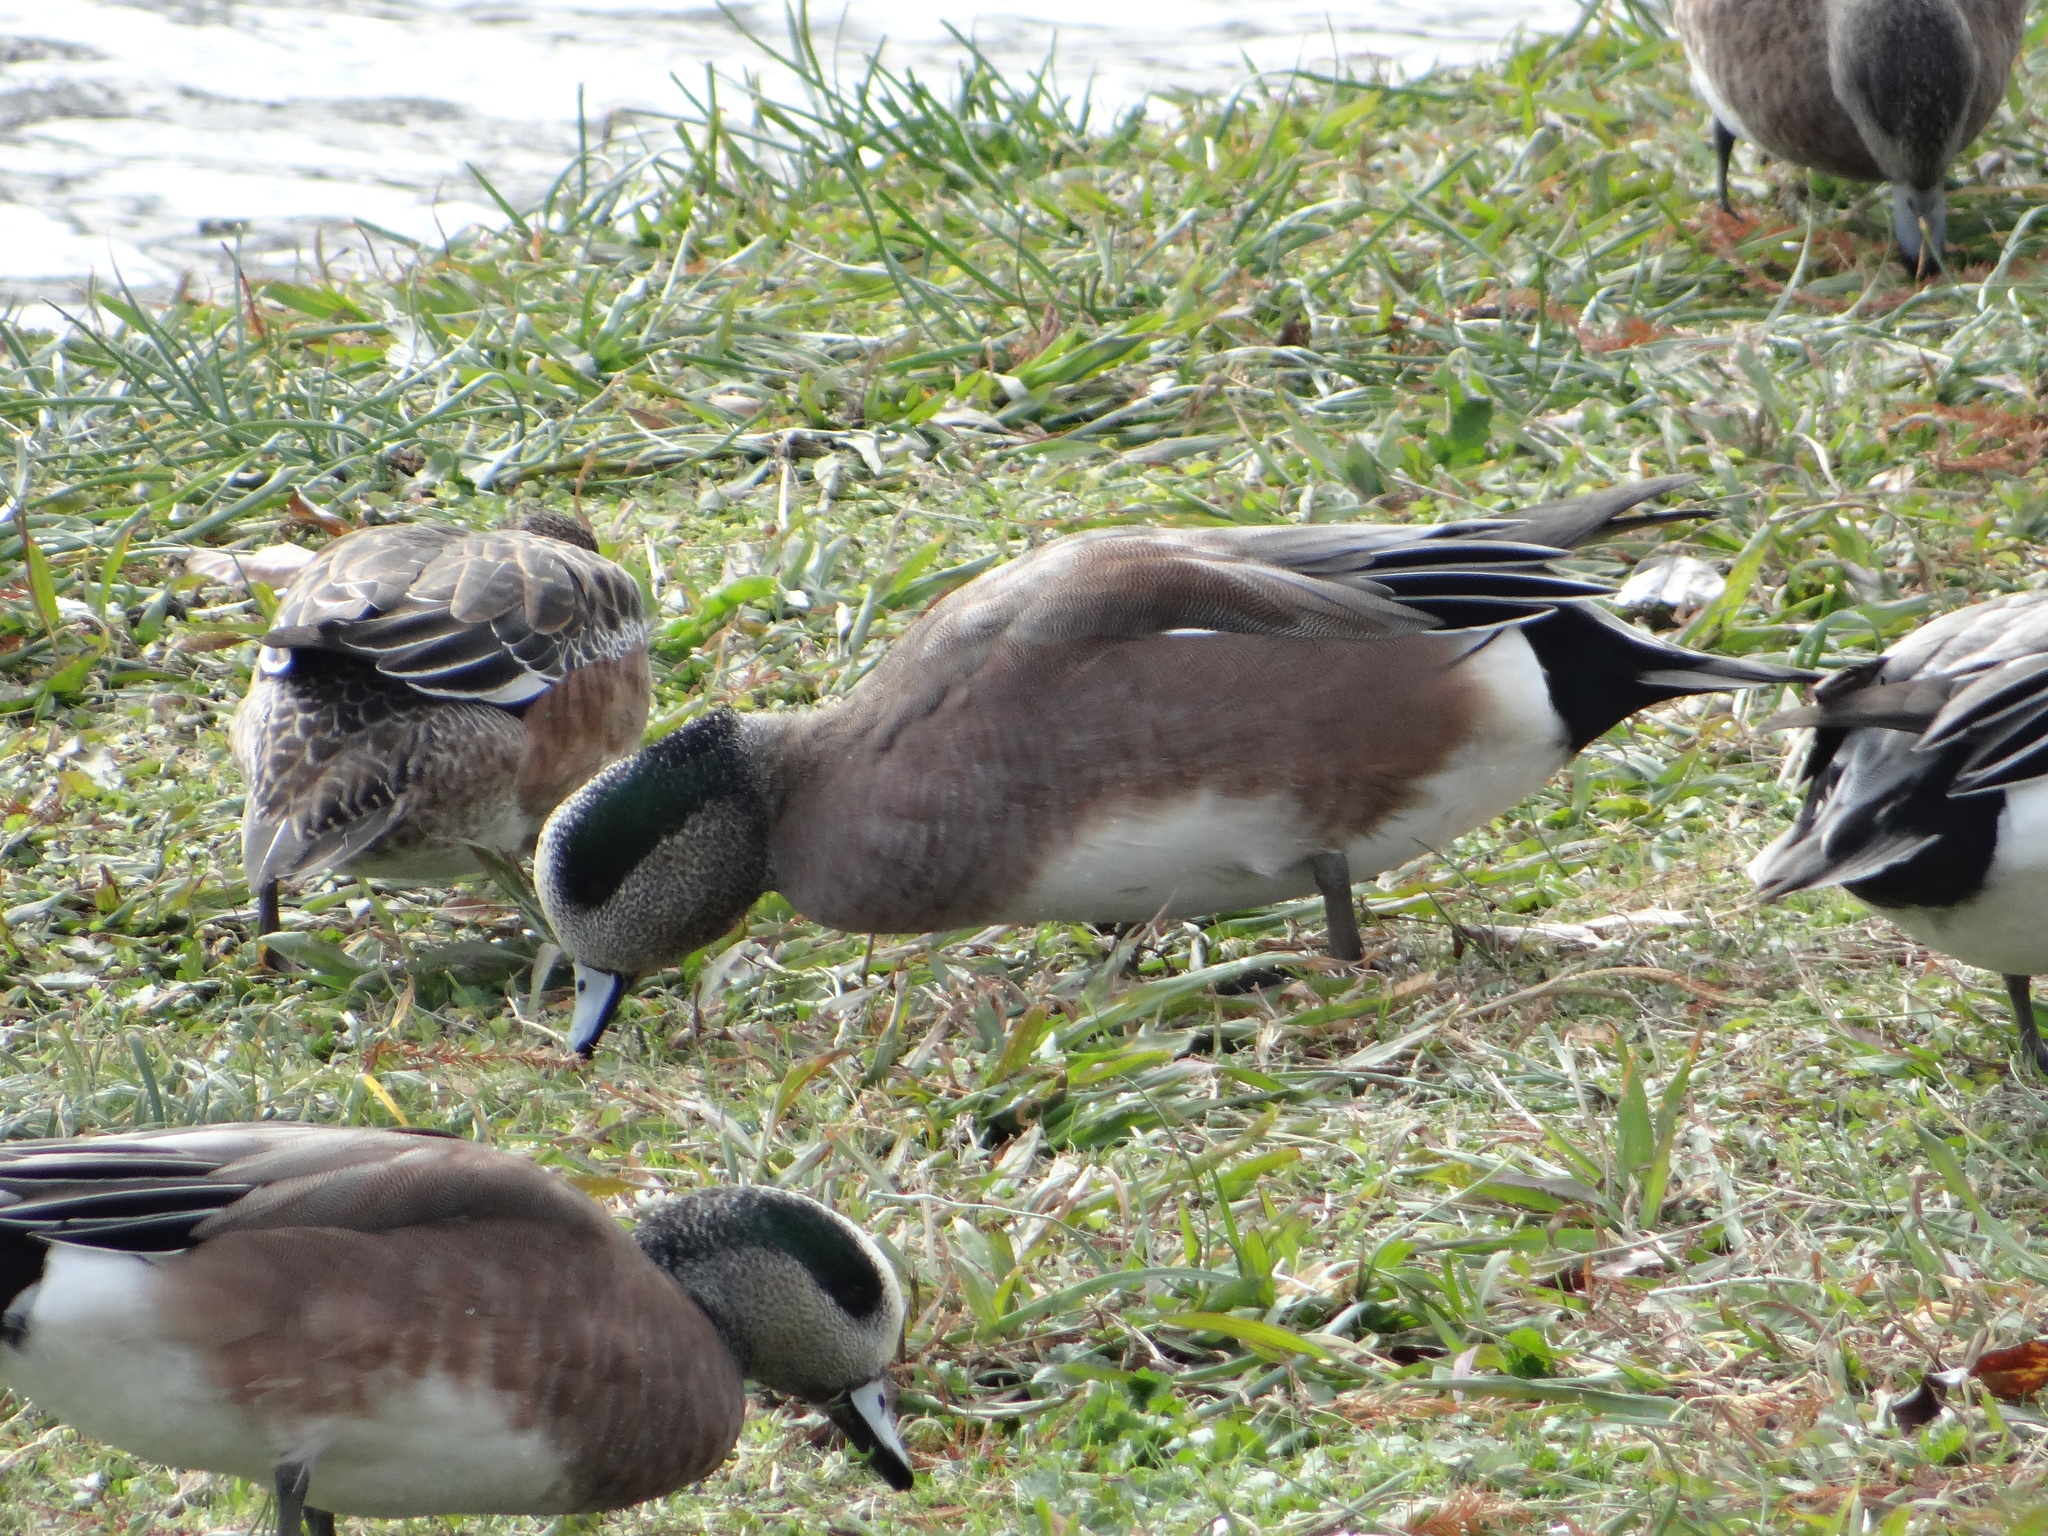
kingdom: Animalia
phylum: Chordata
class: Aves
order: Anseriformes
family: Anatidae
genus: Mareca
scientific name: Mareca americana
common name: American wigeon
